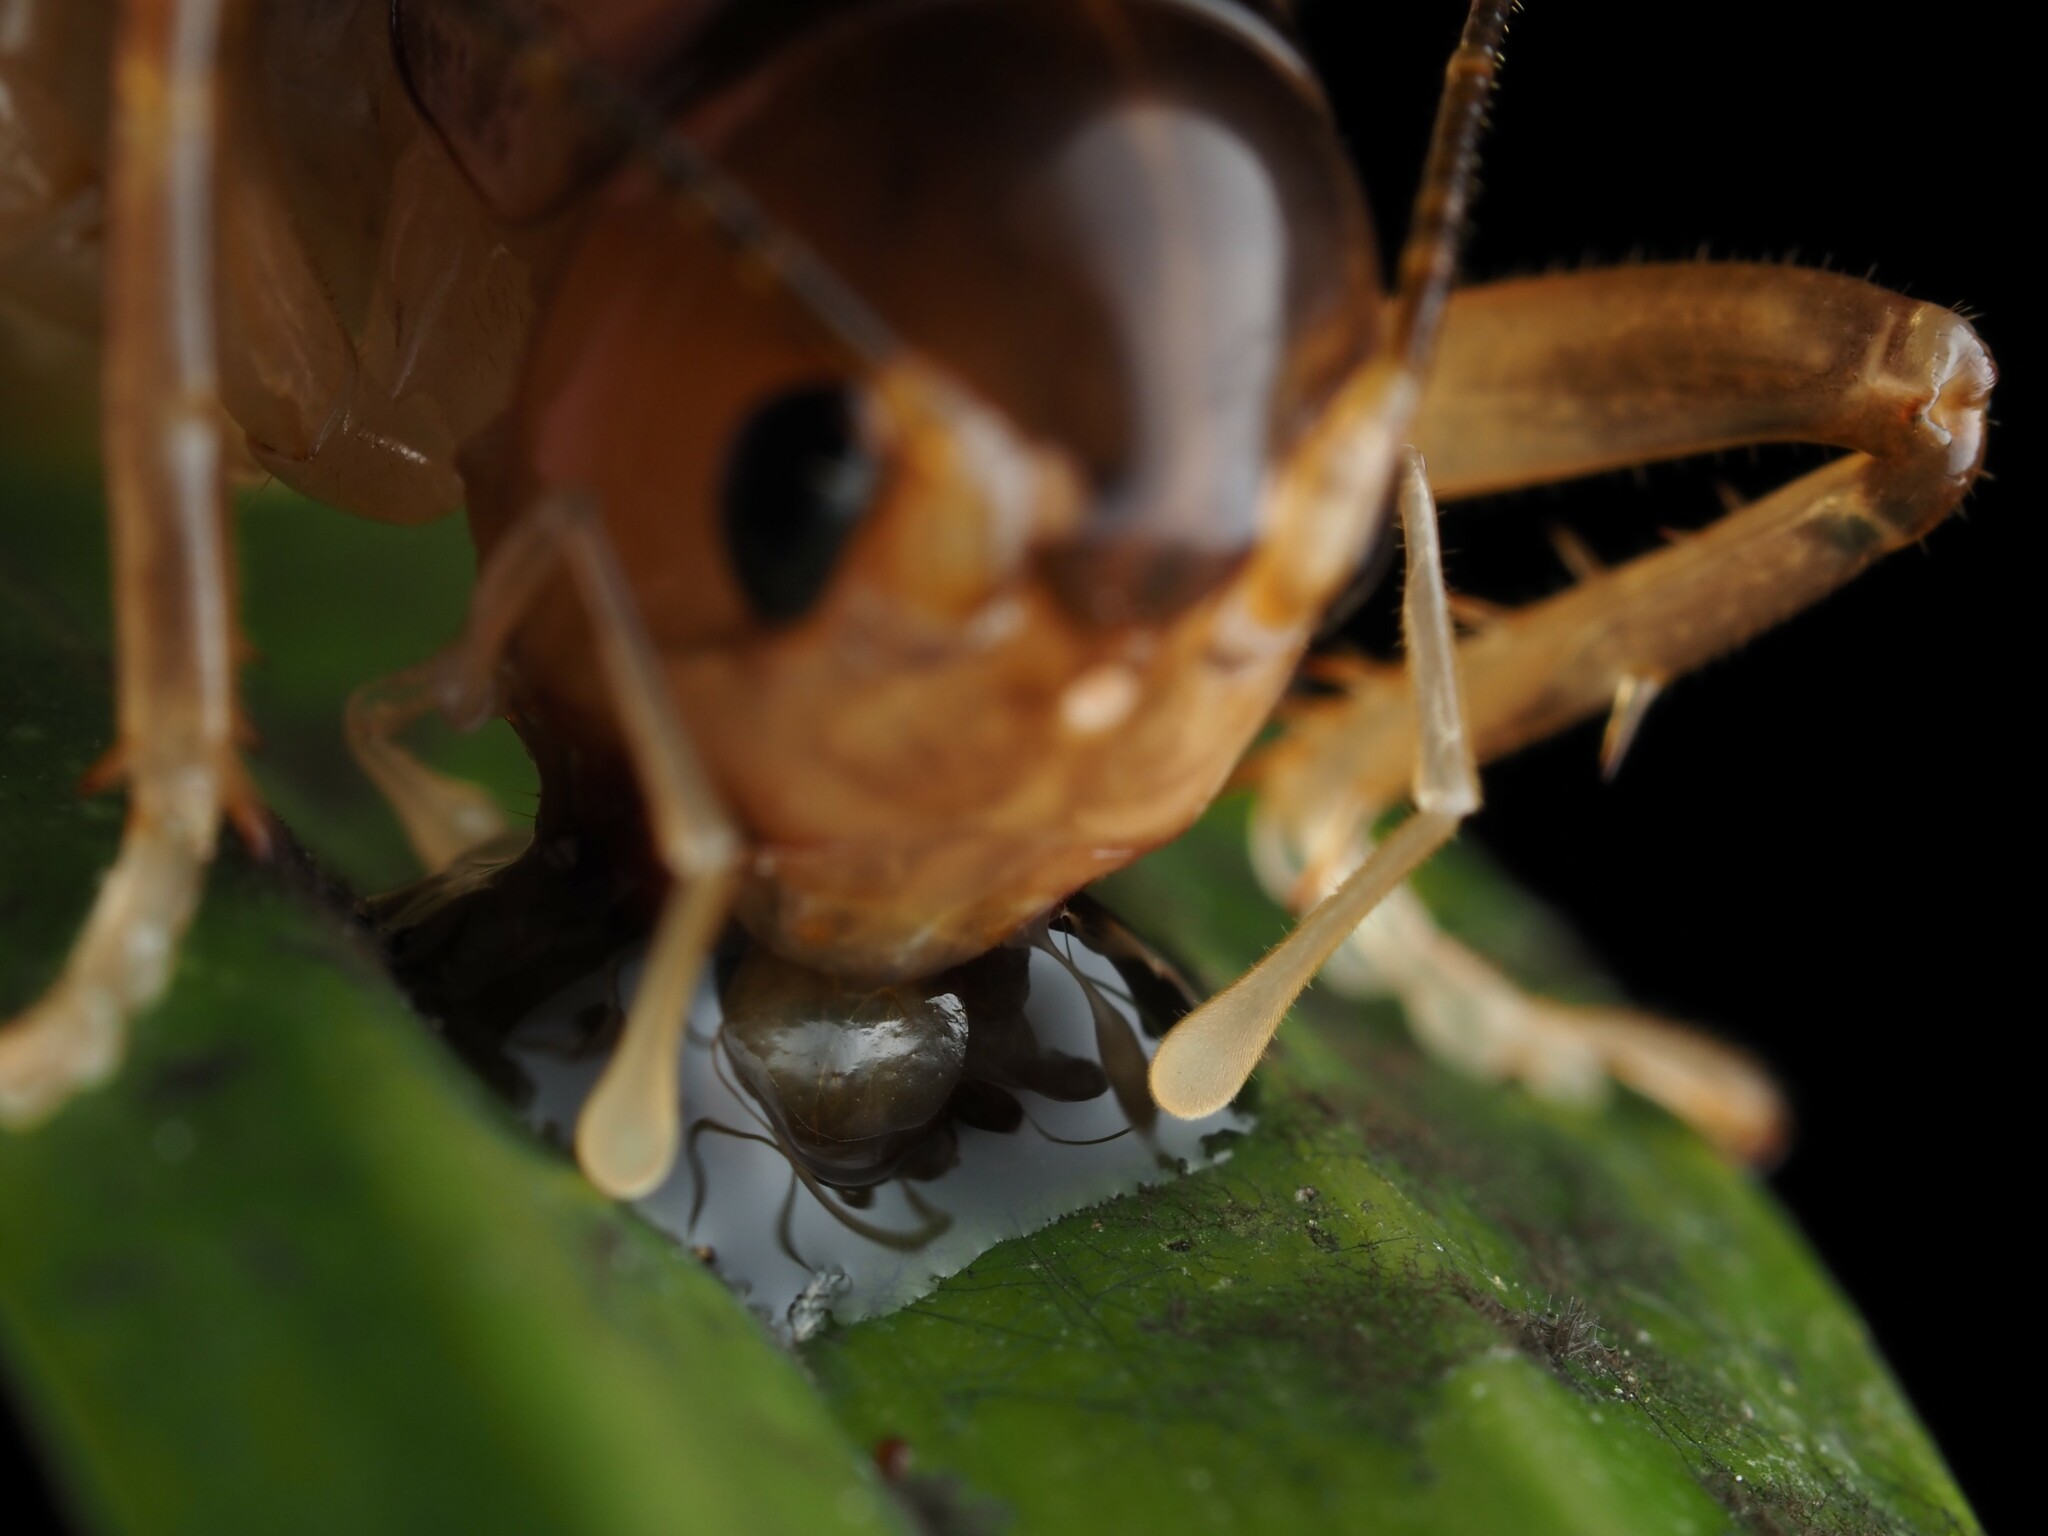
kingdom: Animalia
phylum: Arthropoda
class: Insecta
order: Orthoptera
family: Anostostomatidae
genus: Hemiandrus
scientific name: Hemiandrus pallitarsis
